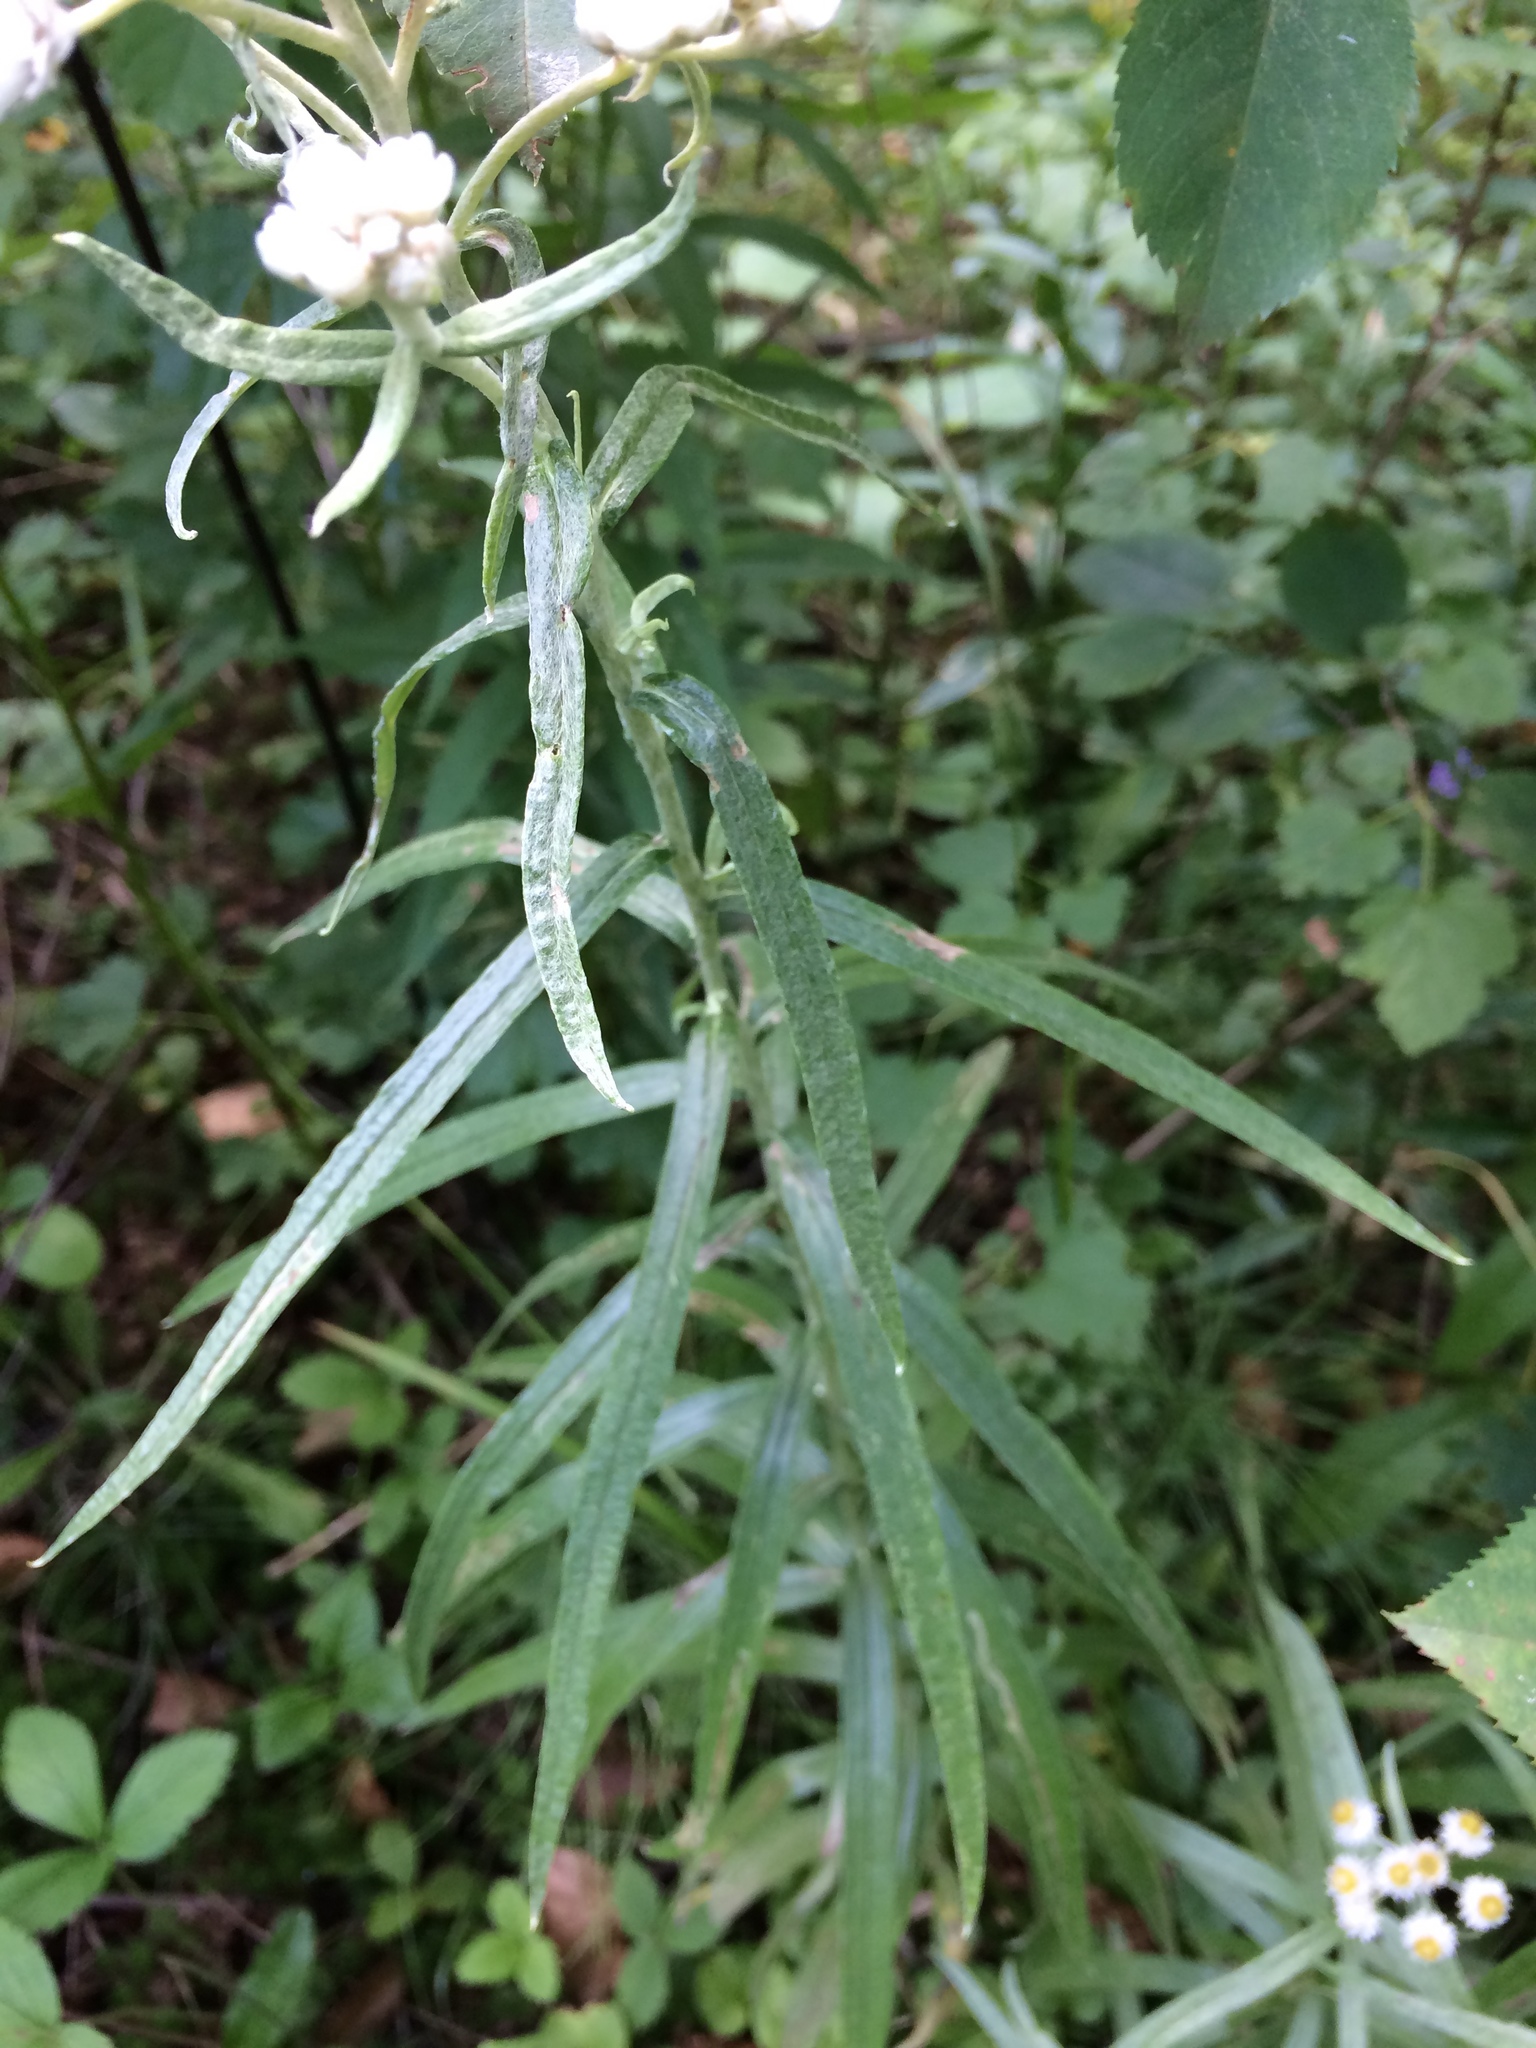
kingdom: Plantae
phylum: Tracheophyta
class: Magnoliopsida
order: Asterales
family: Asteraceae
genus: Anaphalis
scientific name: Anaphalis margaritacea
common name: Pearly everlasting
